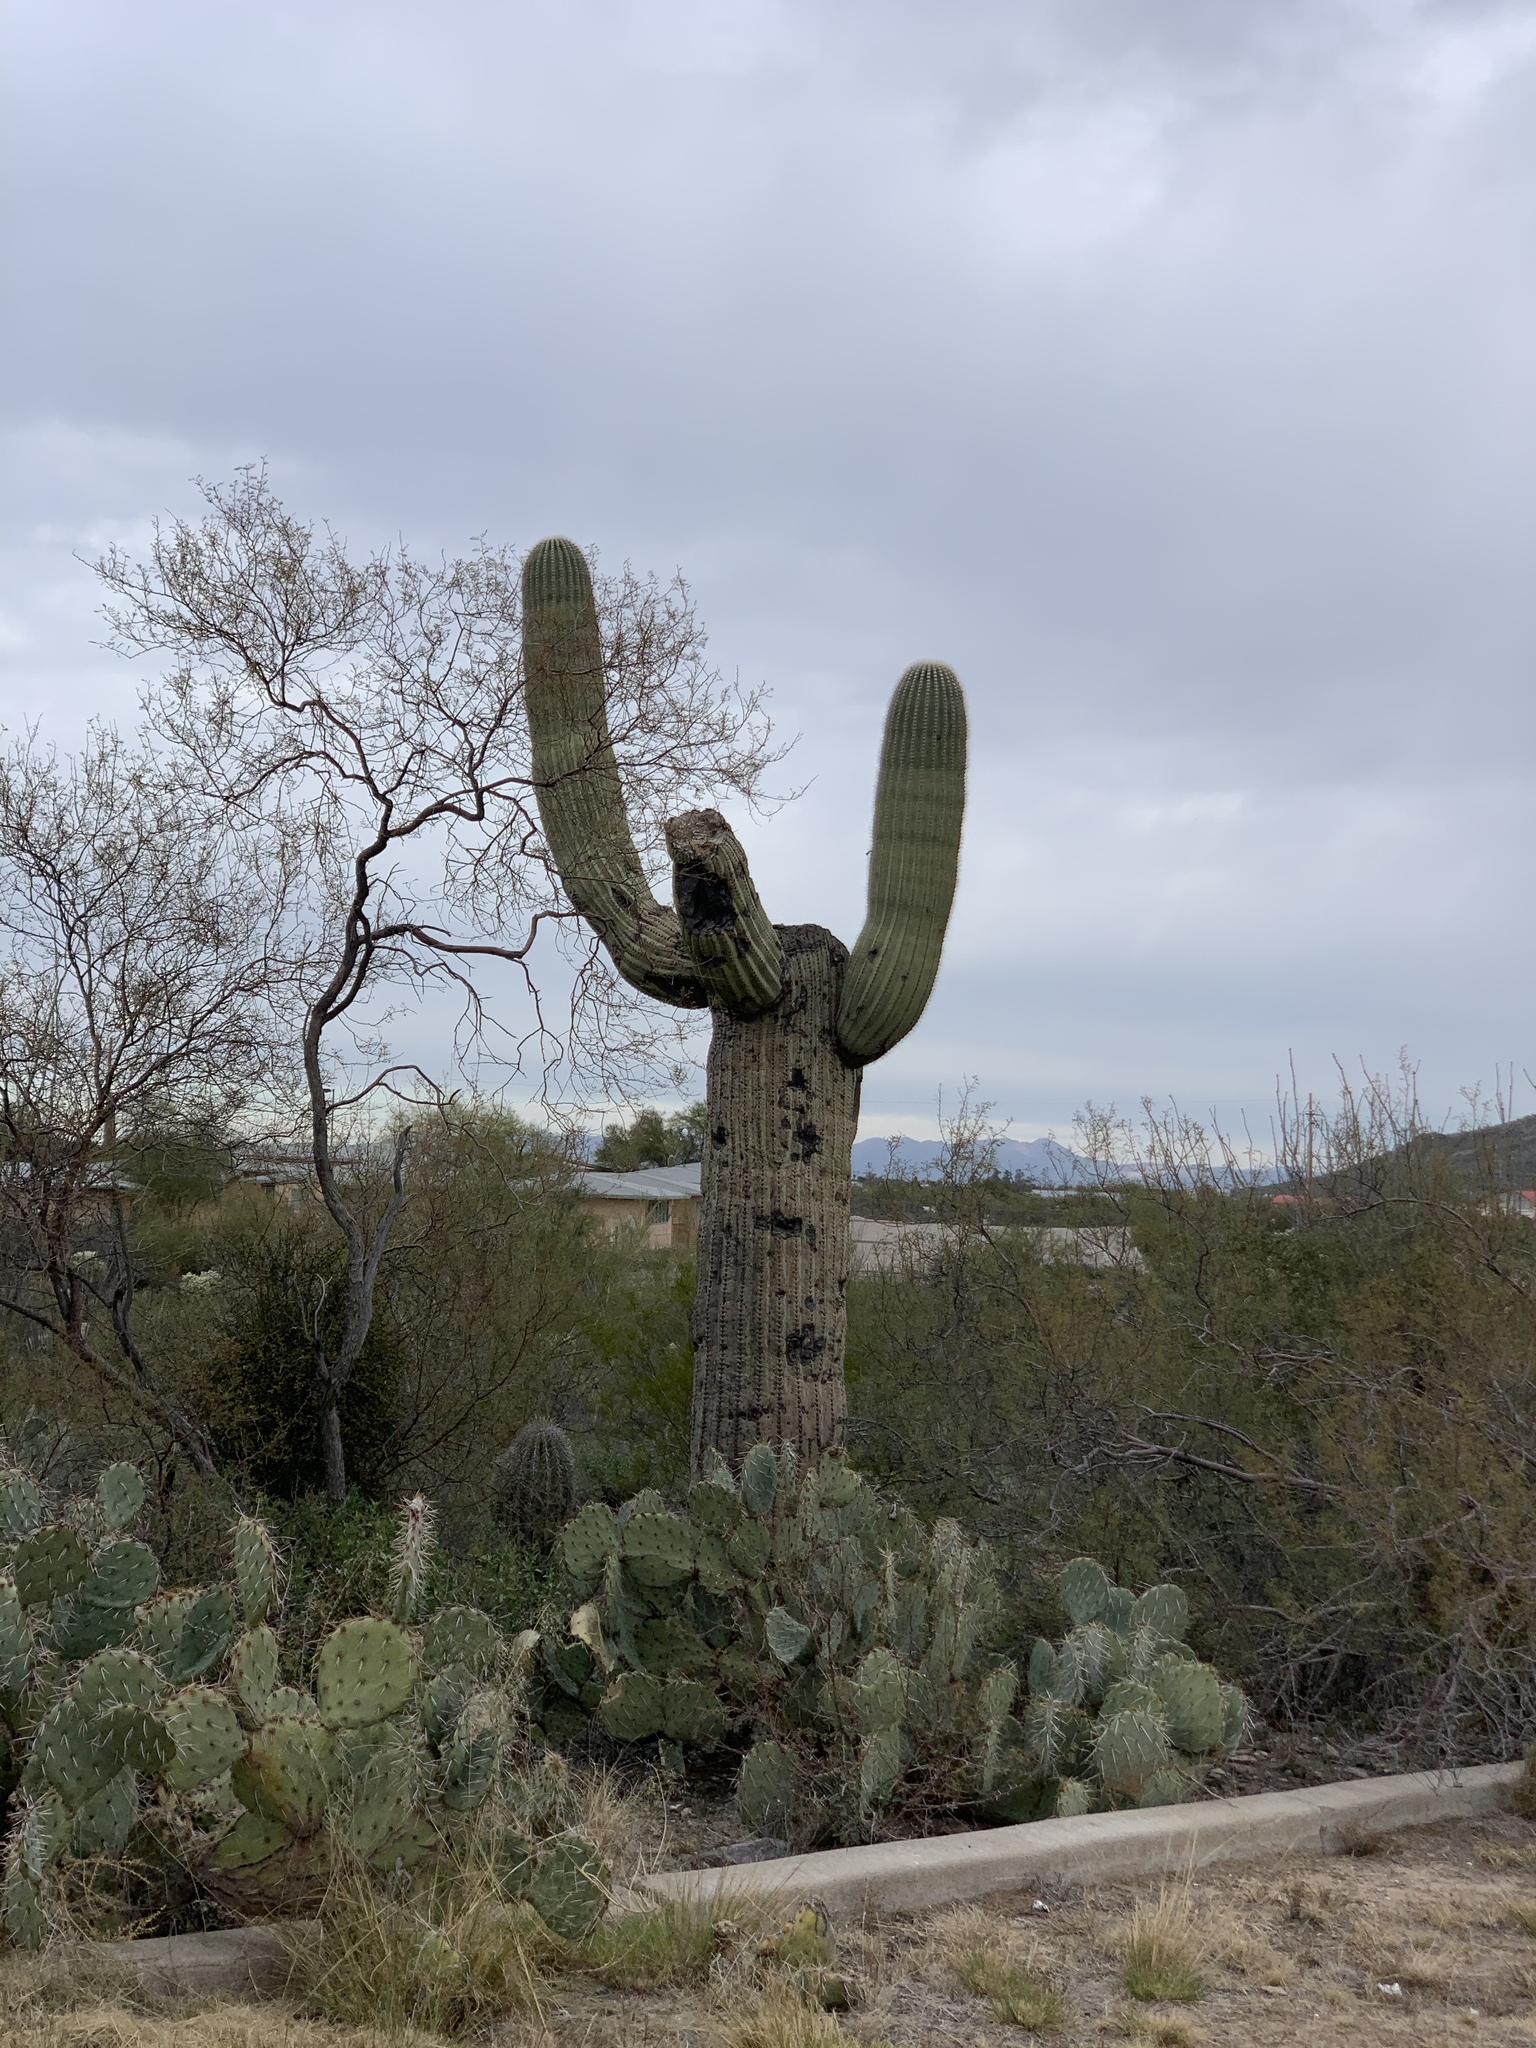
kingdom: Plantae
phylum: Tracheophyta
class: Magnoliopsida
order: Caryophyllales
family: Cactaceae
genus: Carnegiea
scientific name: Carnegiea gigantea
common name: Saguaro
